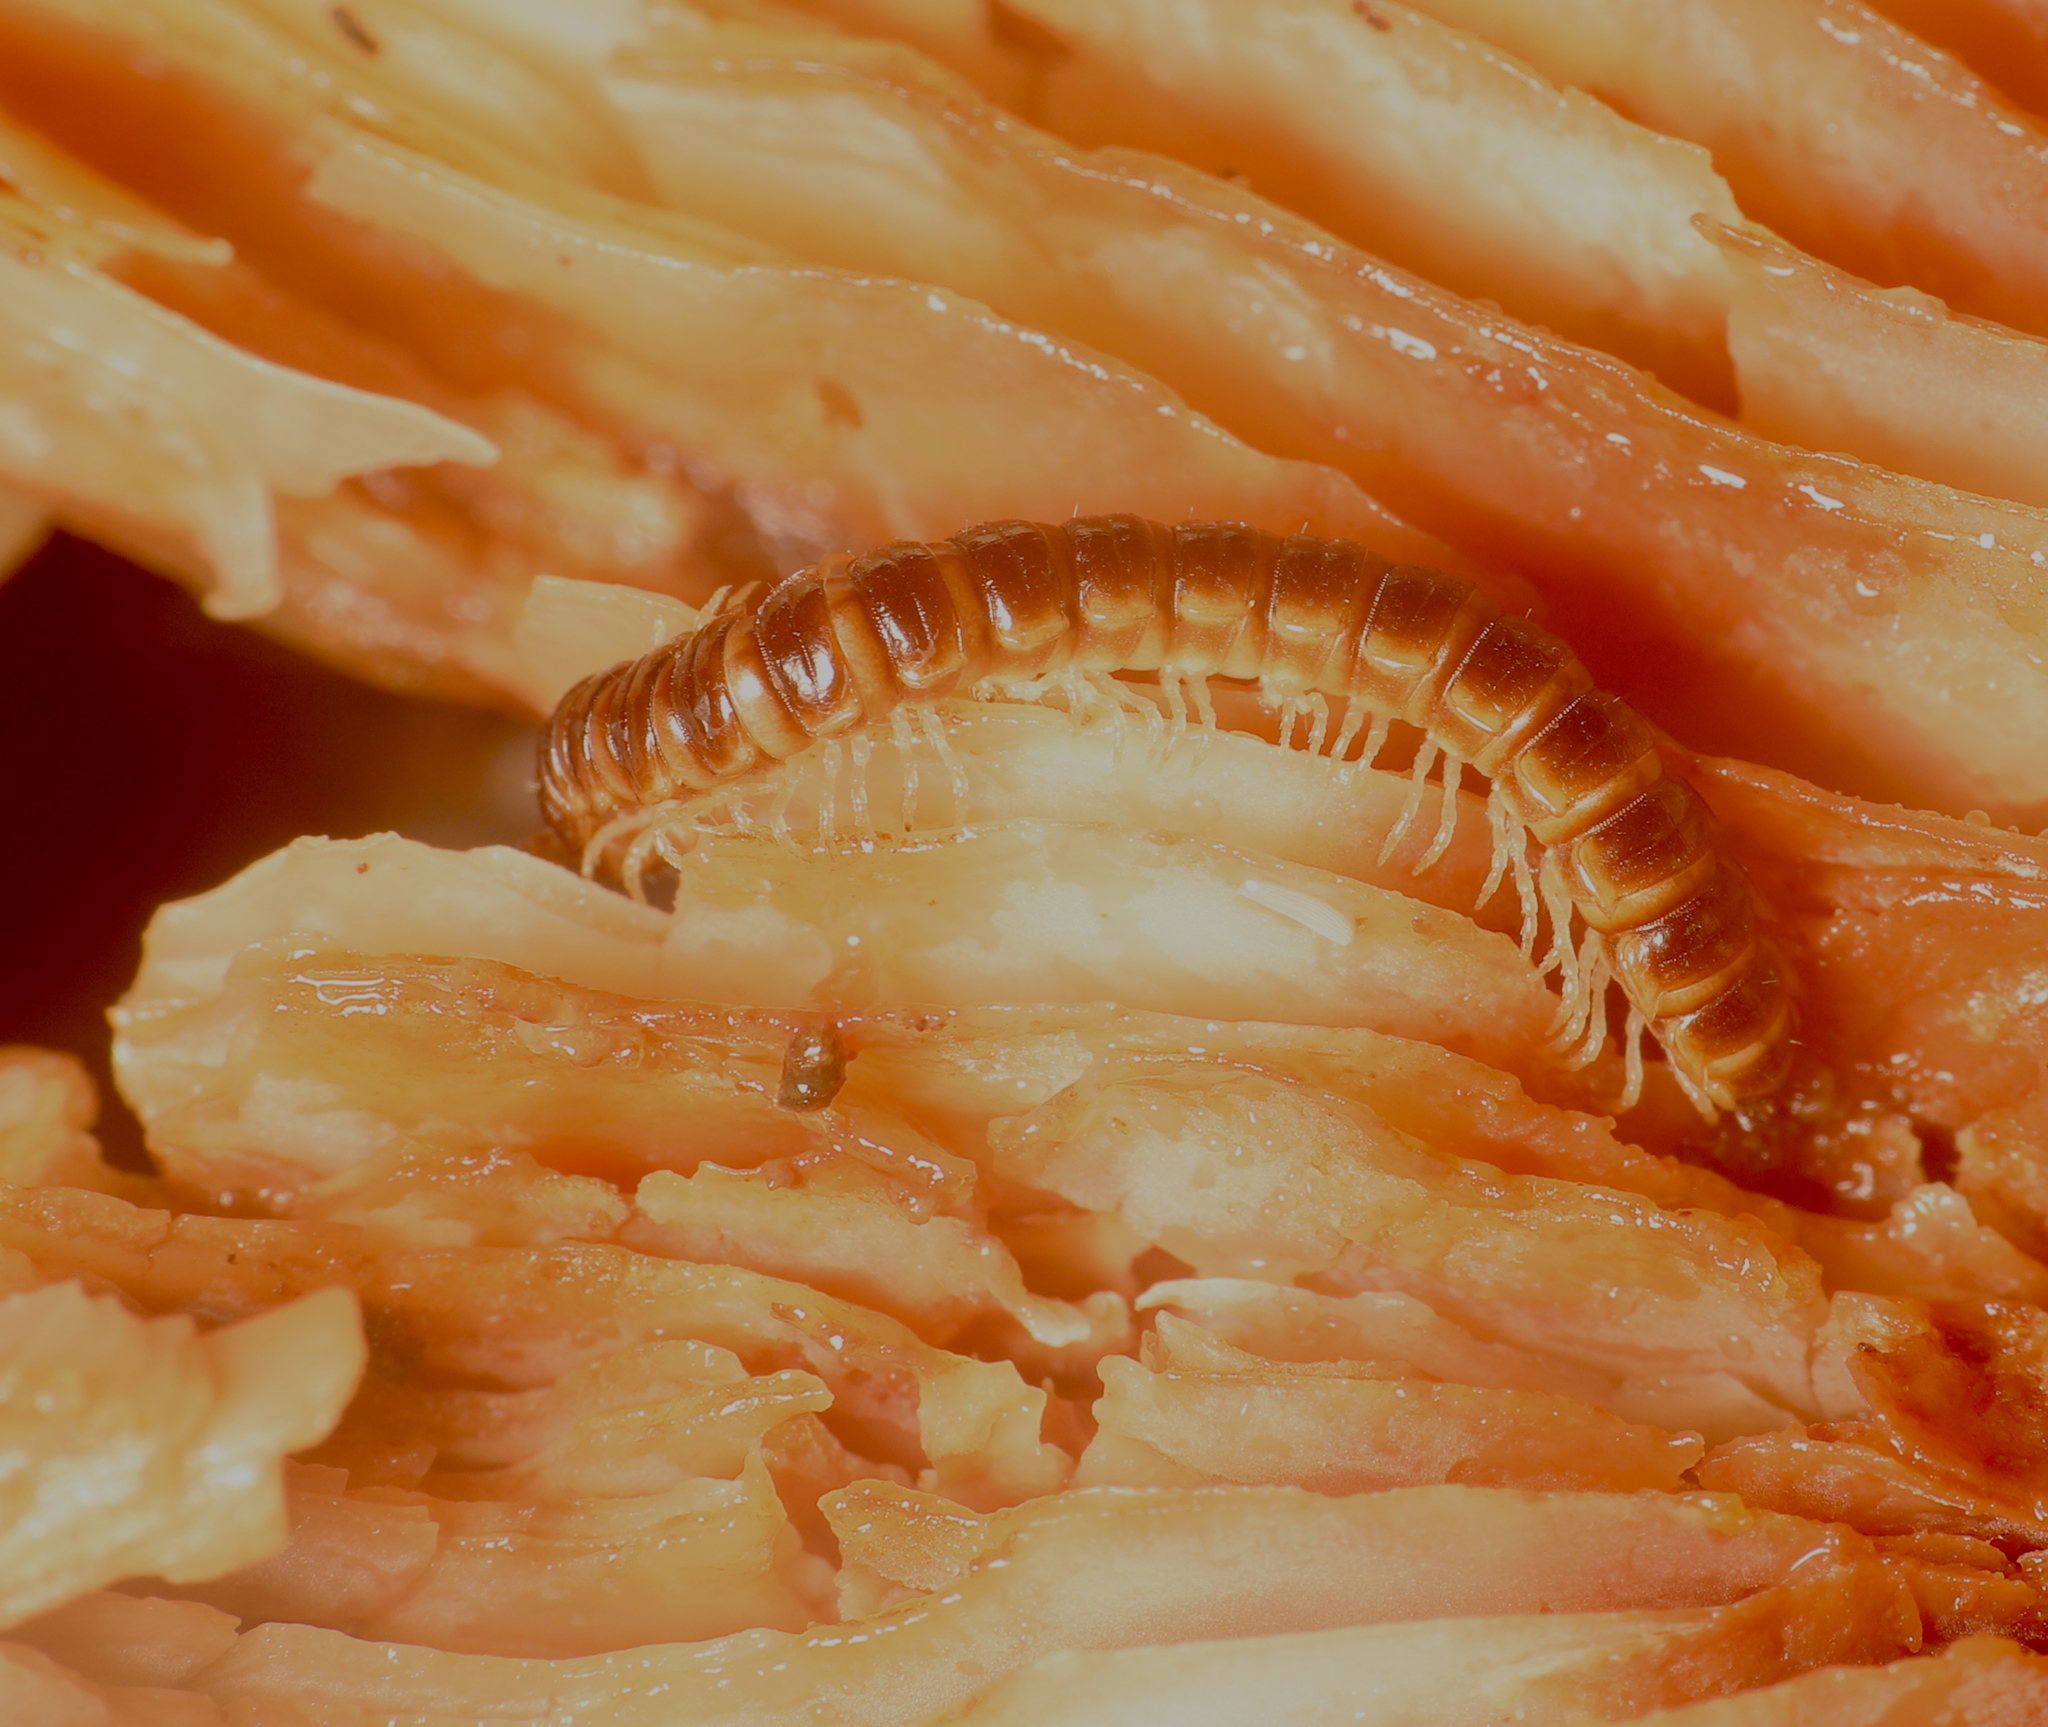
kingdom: Animalia
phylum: Arthropoda
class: Diplopoda
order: Polydesmida
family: Paradoxosomatidae
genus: Oxidus
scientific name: Oxidus gracilis
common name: Greenhouse millipede
